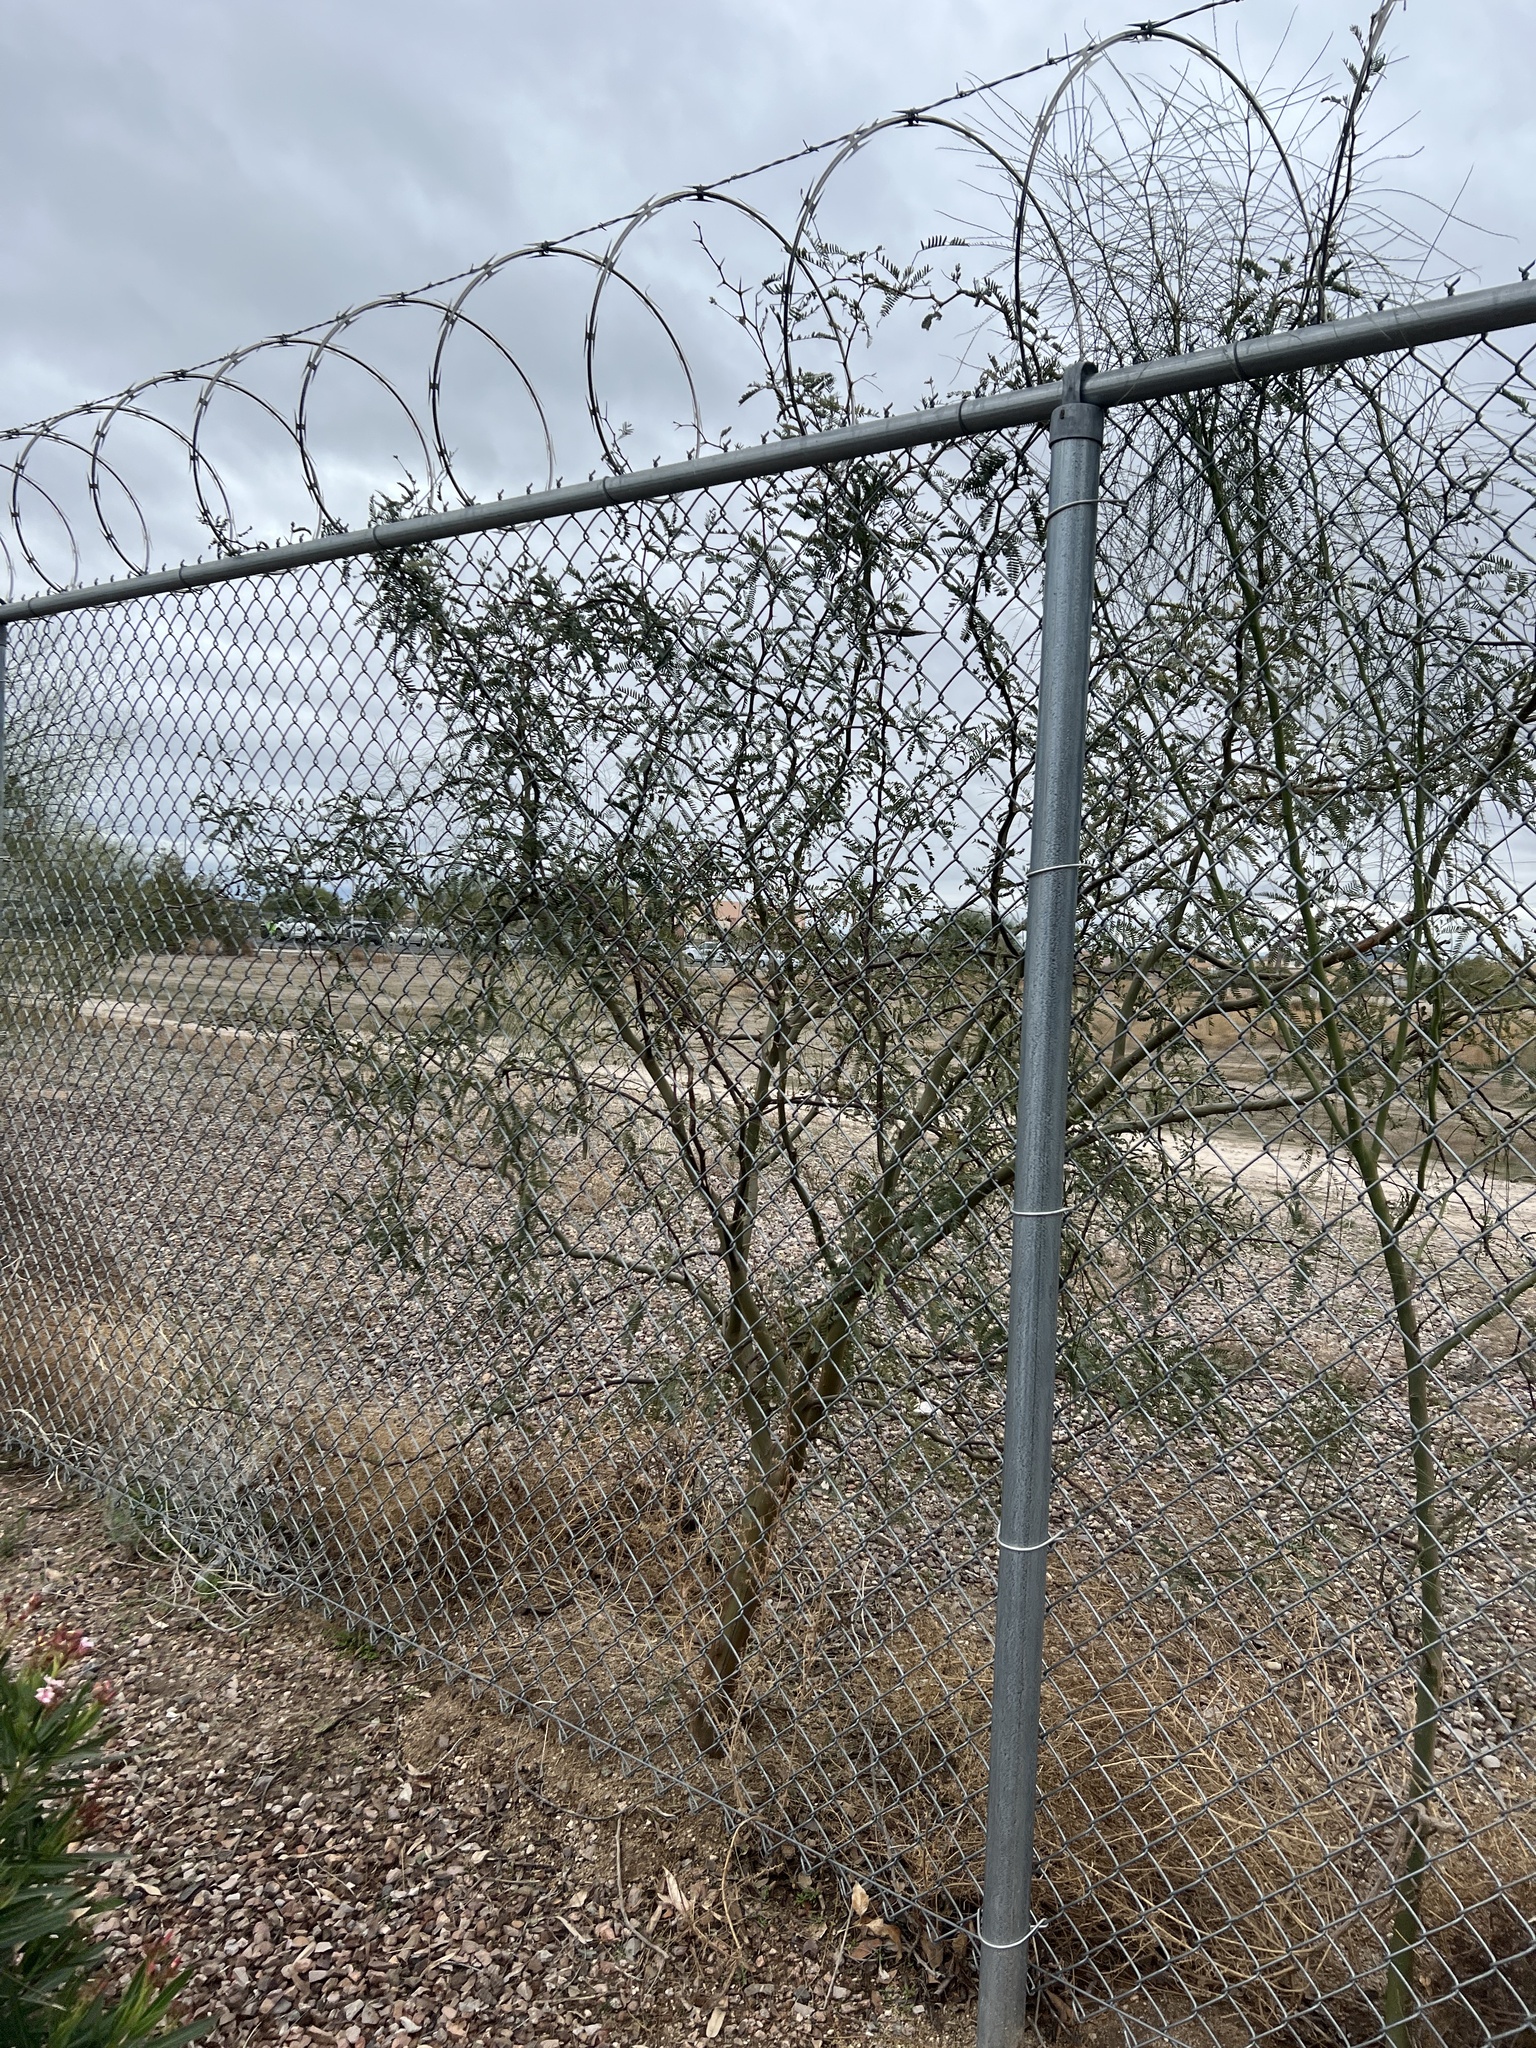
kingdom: Plantae
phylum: Tracheophyta
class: Magnoliopsida
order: Fabales
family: Fabaceae
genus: Prosopis
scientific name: Prosopis velutina
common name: Velvet mesquite
